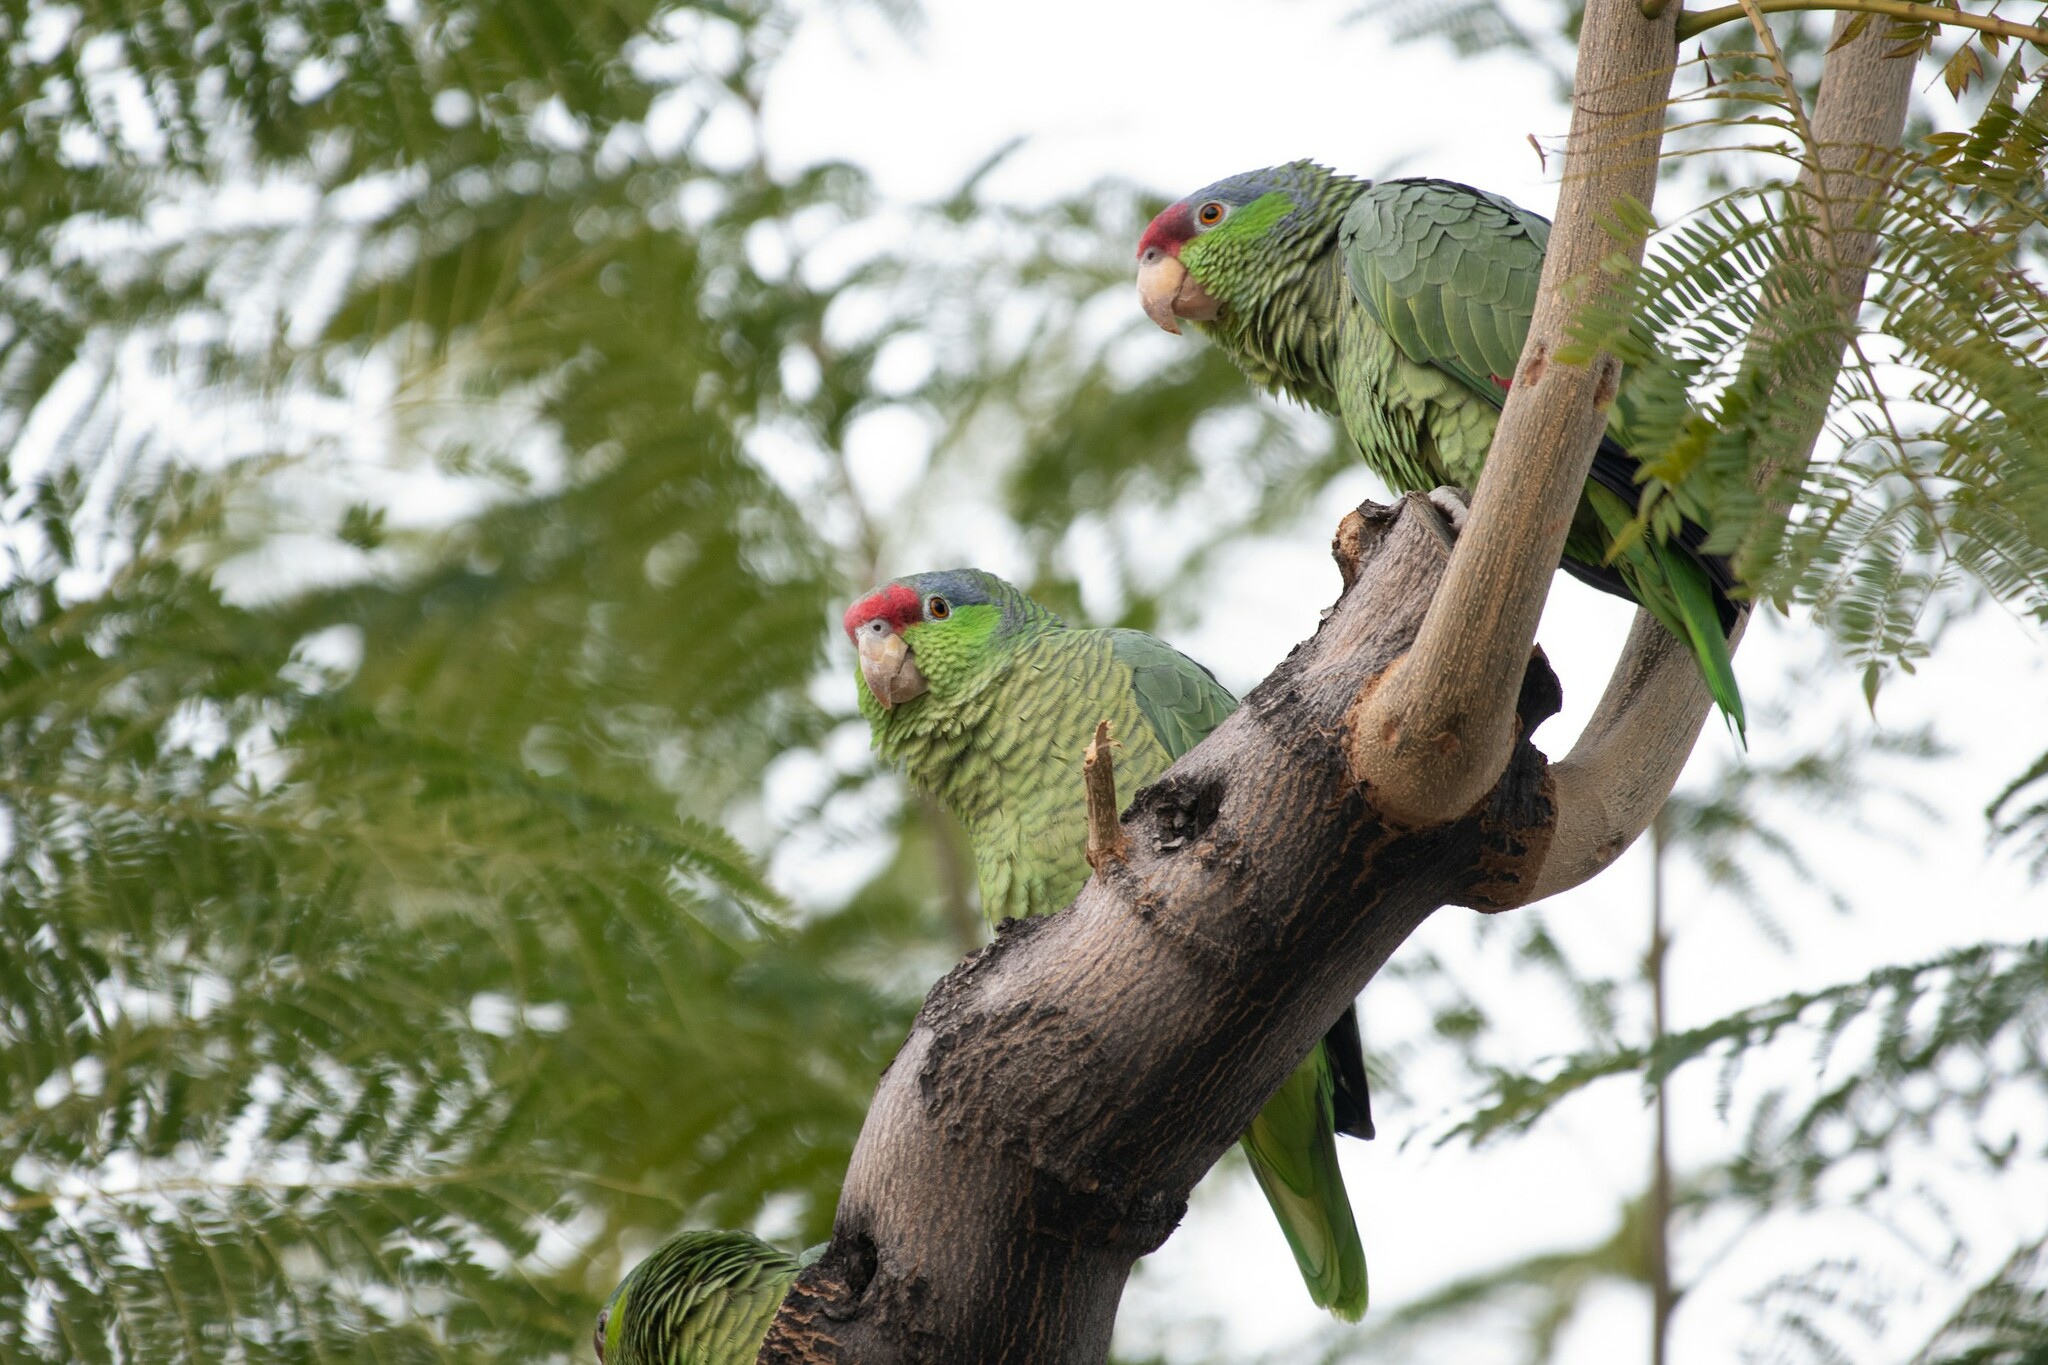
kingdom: Animalia
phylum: Chordata
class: Aves
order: Psittaciformes
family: Psittacidae
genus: Amazona
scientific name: Amazona viridigenalis
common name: Red-crowned amazon
